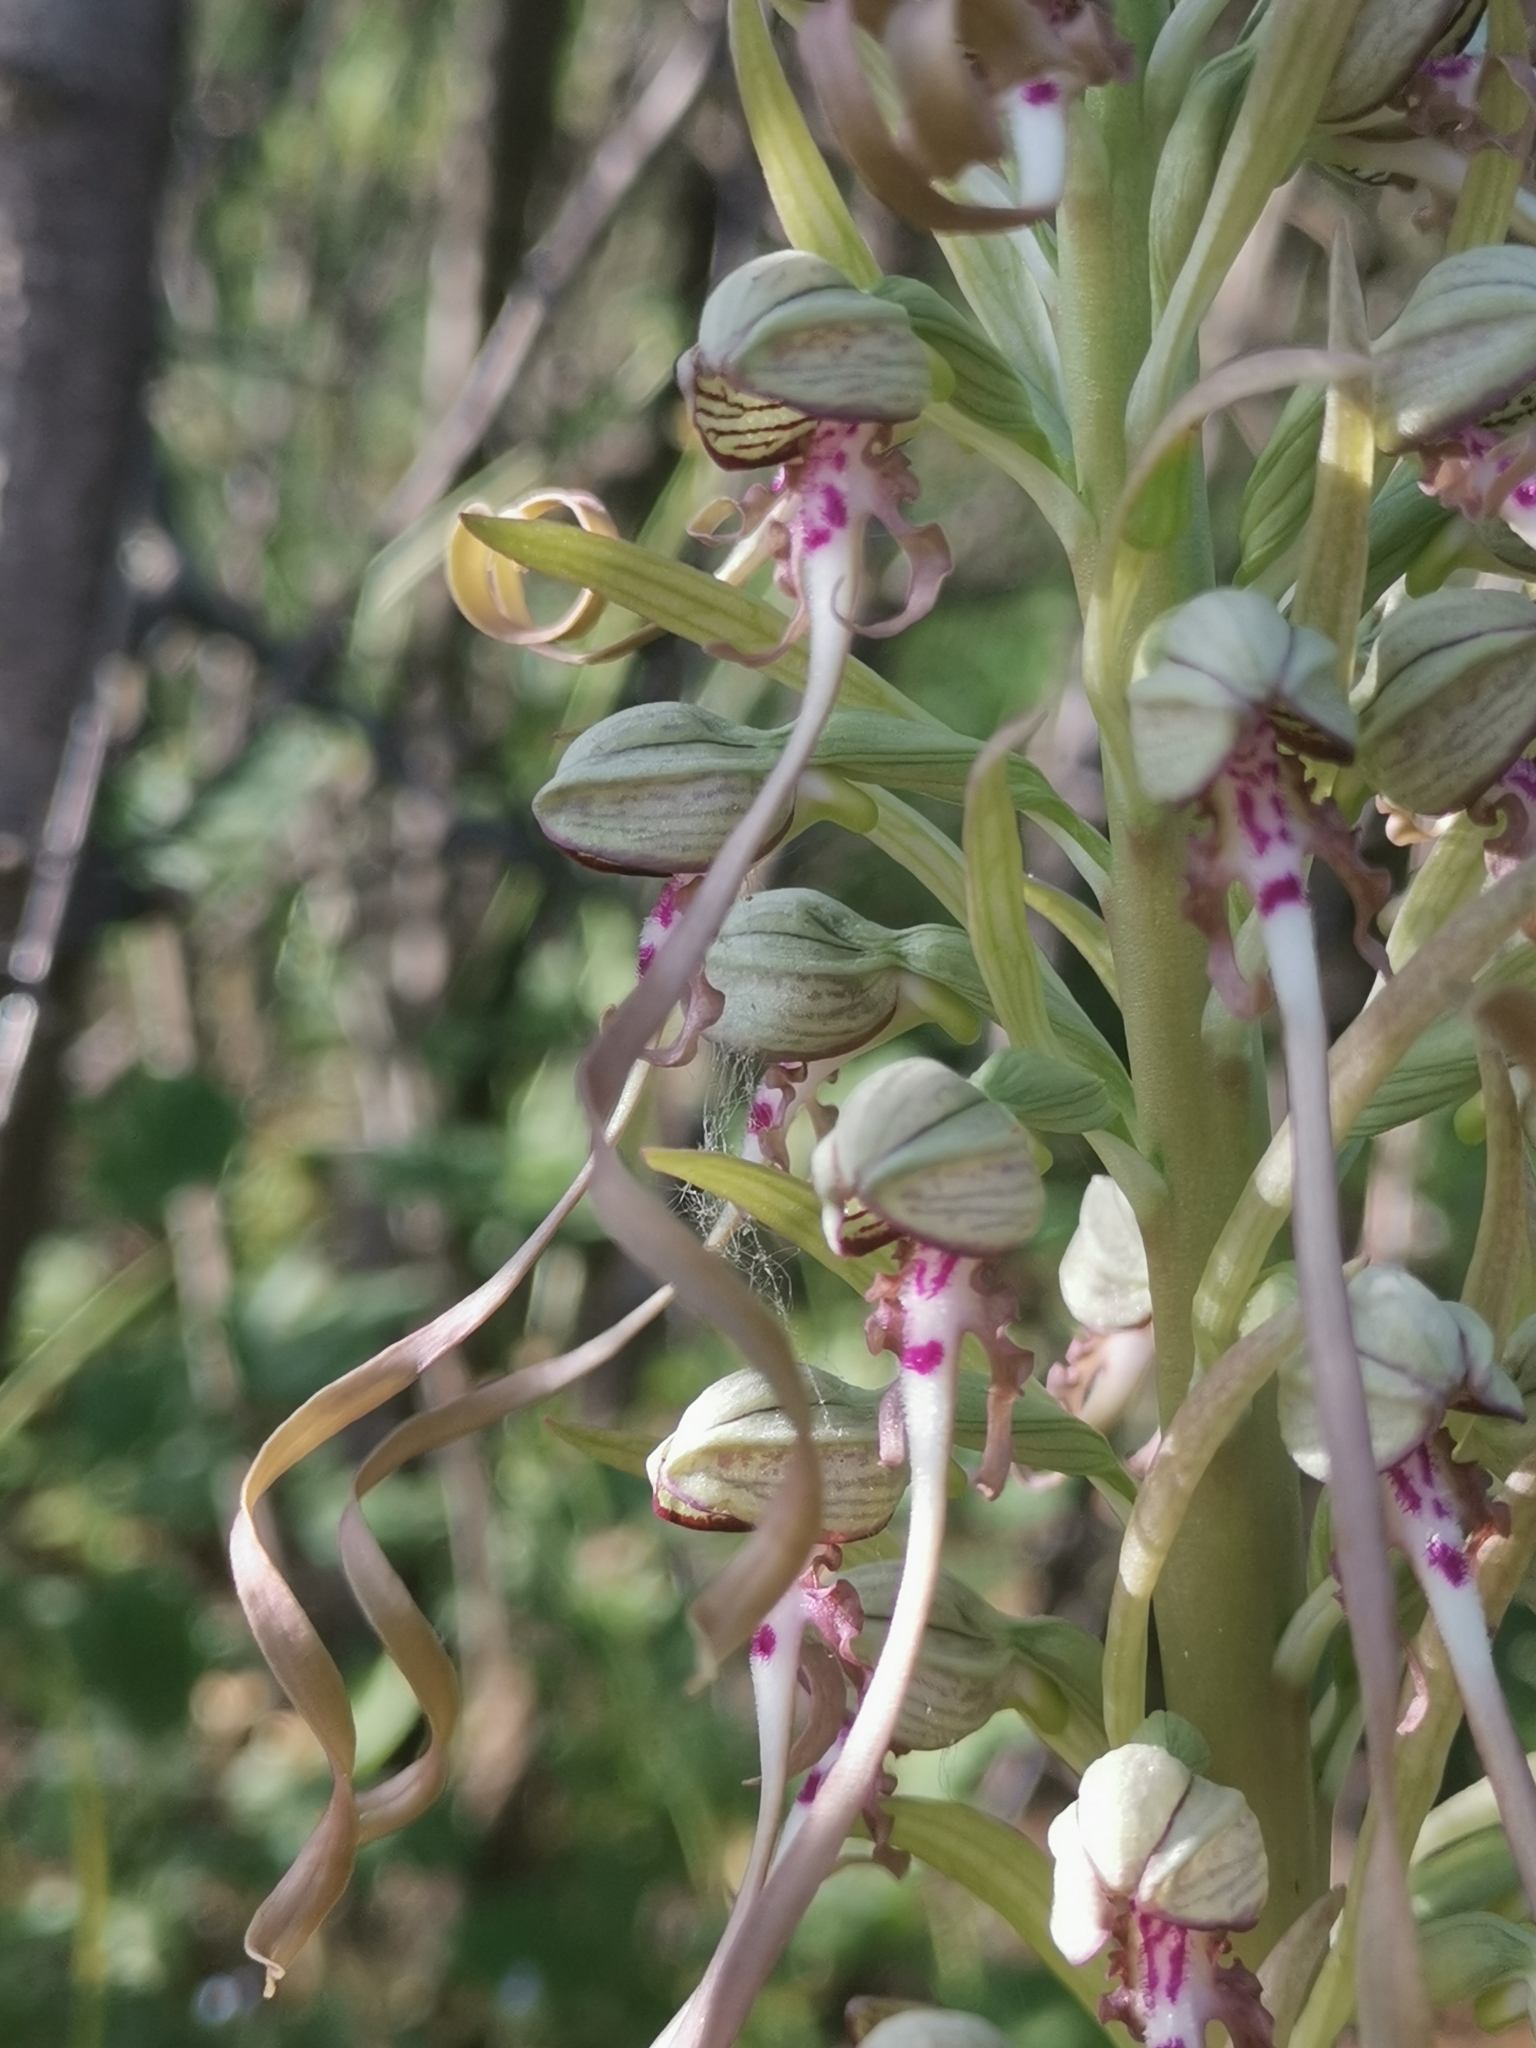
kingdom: Plantae
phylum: Tracheophyta
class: Liliopsida
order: Asparagales
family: Orchidaceae
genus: Himantoglossum
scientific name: Himantoglossum hircinum
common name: Lizard orchid
